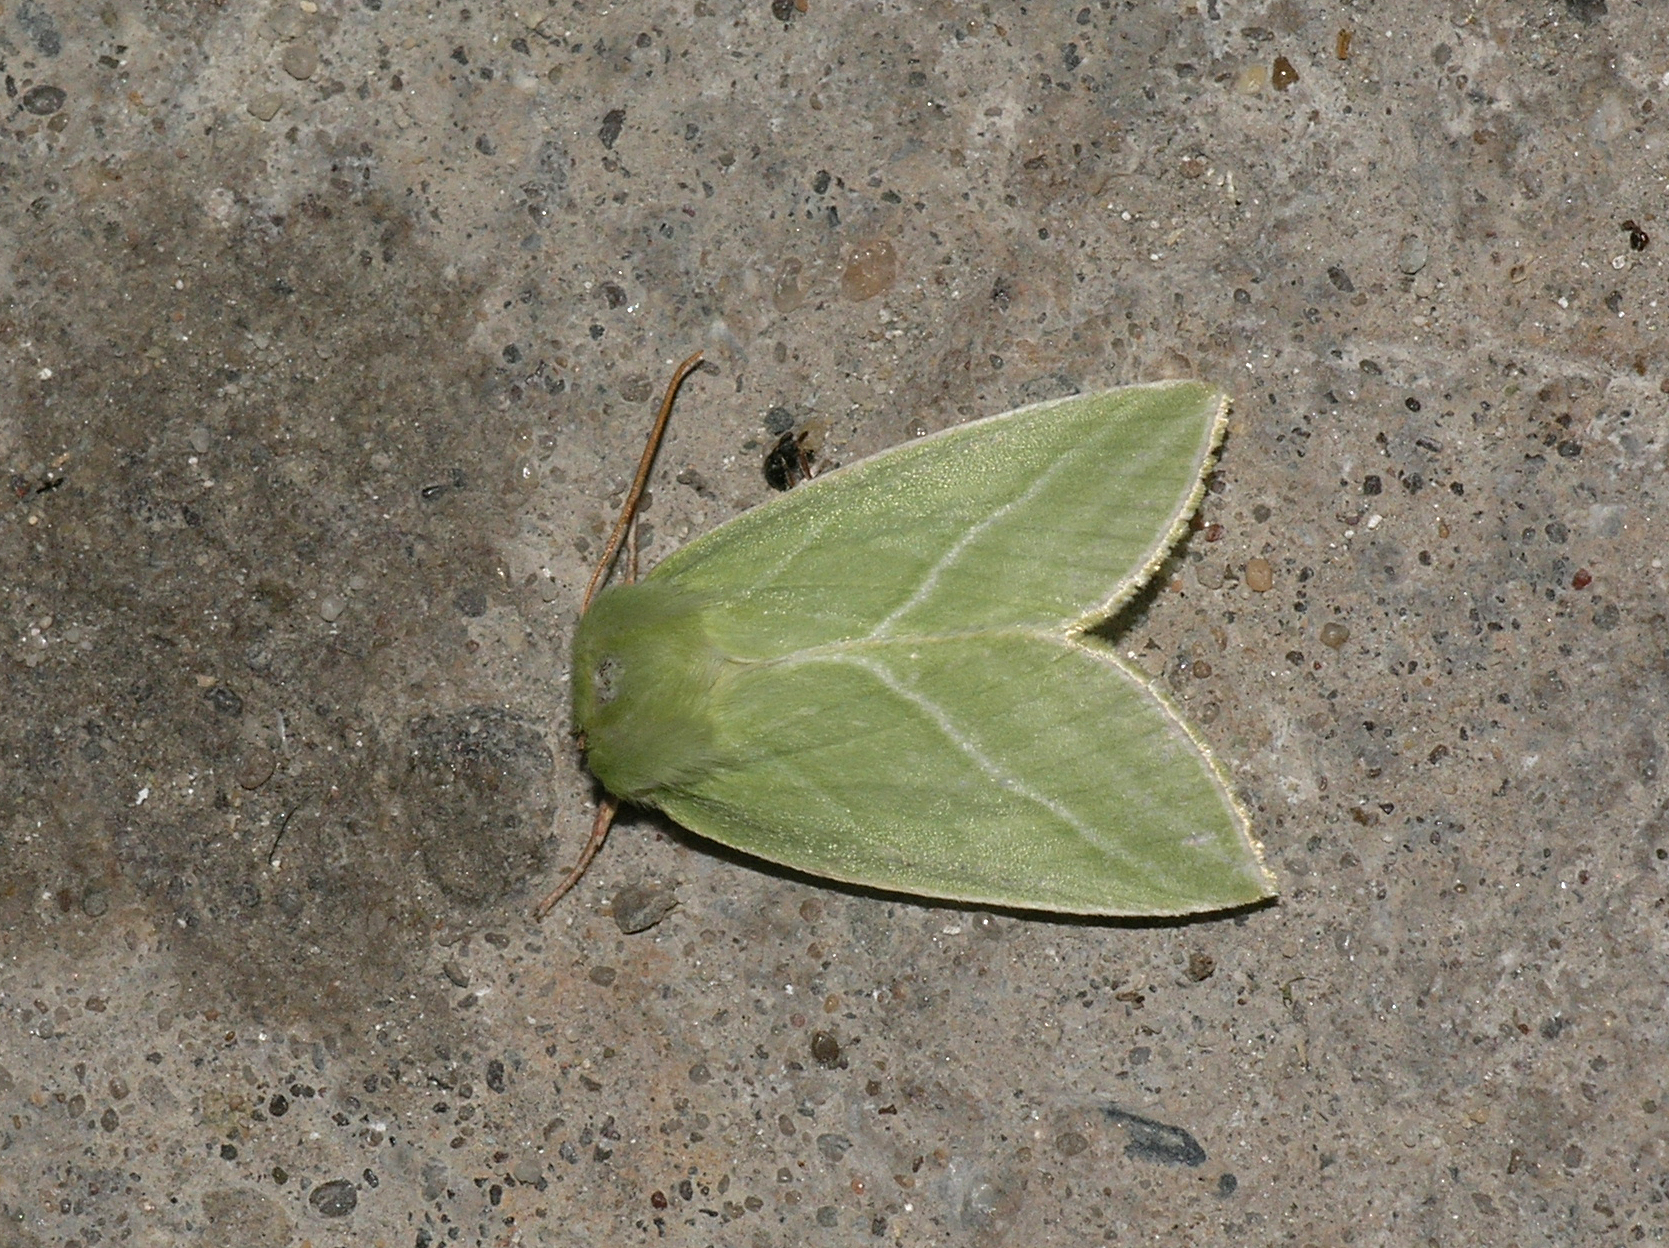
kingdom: Animalia
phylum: Arthropoda
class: Insecta
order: Lepidoptera
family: Nolidae
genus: Pseudoips
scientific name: Pseudoips prasinana
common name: Green silver-lines
